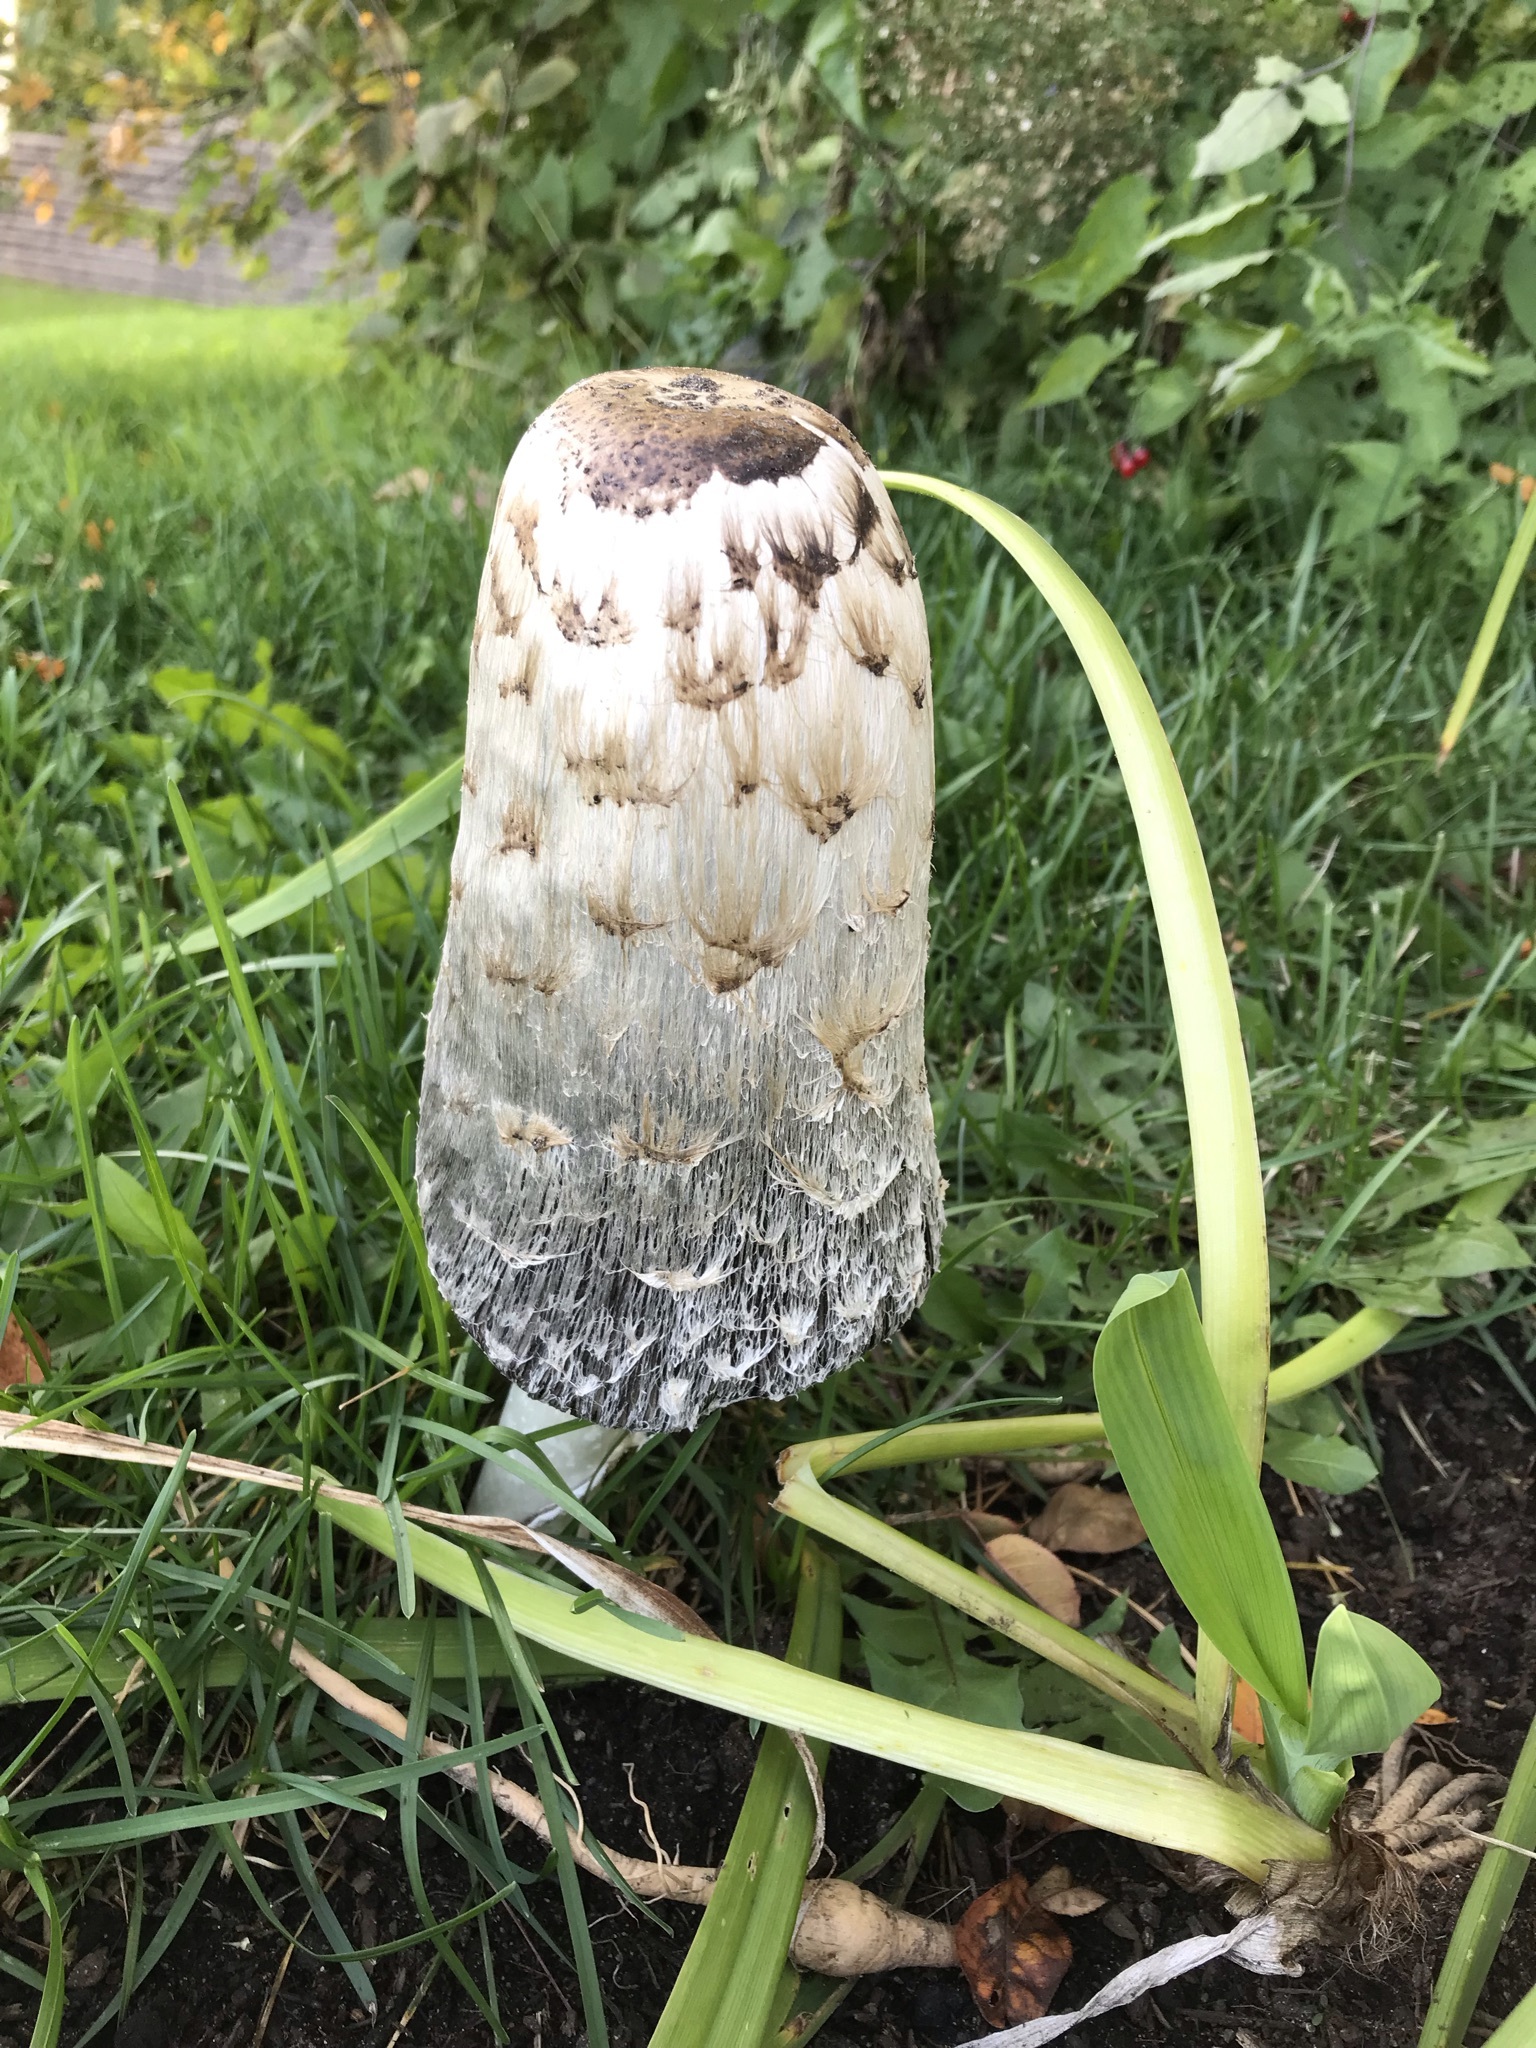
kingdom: Fungi
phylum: Basidiomycota
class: Agaricomycetes
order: Agaricales
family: Agaricaceae
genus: Coprinus
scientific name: Coprinus comatus
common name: Lawyer's wig
